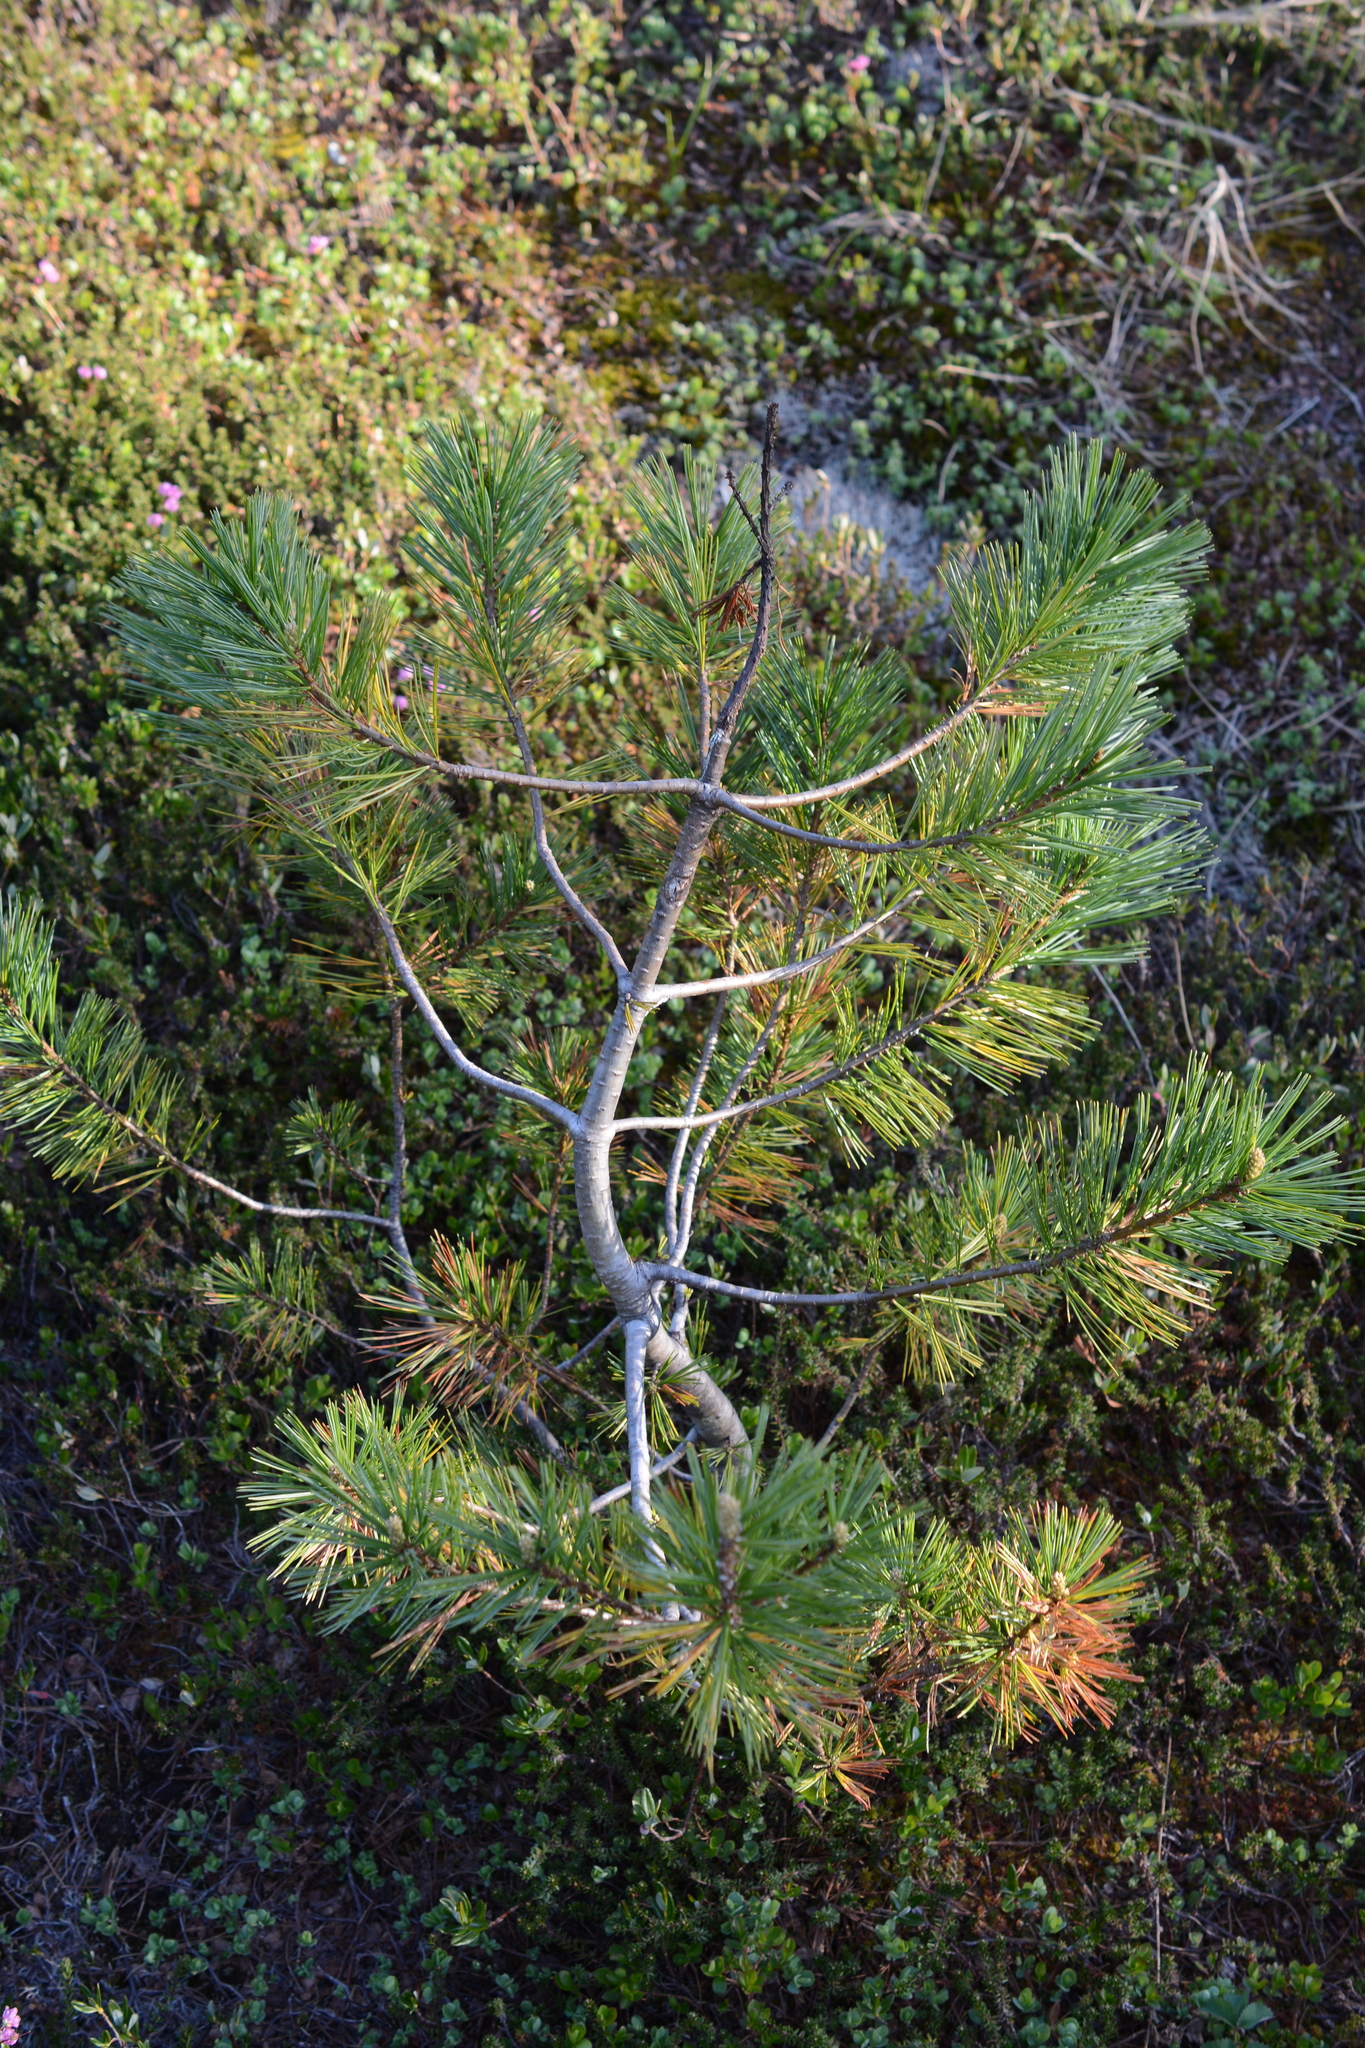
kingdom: Plantae
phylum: Tracheophyta
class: Pinopsida
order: Pinales
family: Pinaceae
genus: Pinus
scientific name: Pinus monticola
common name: Western white pine
